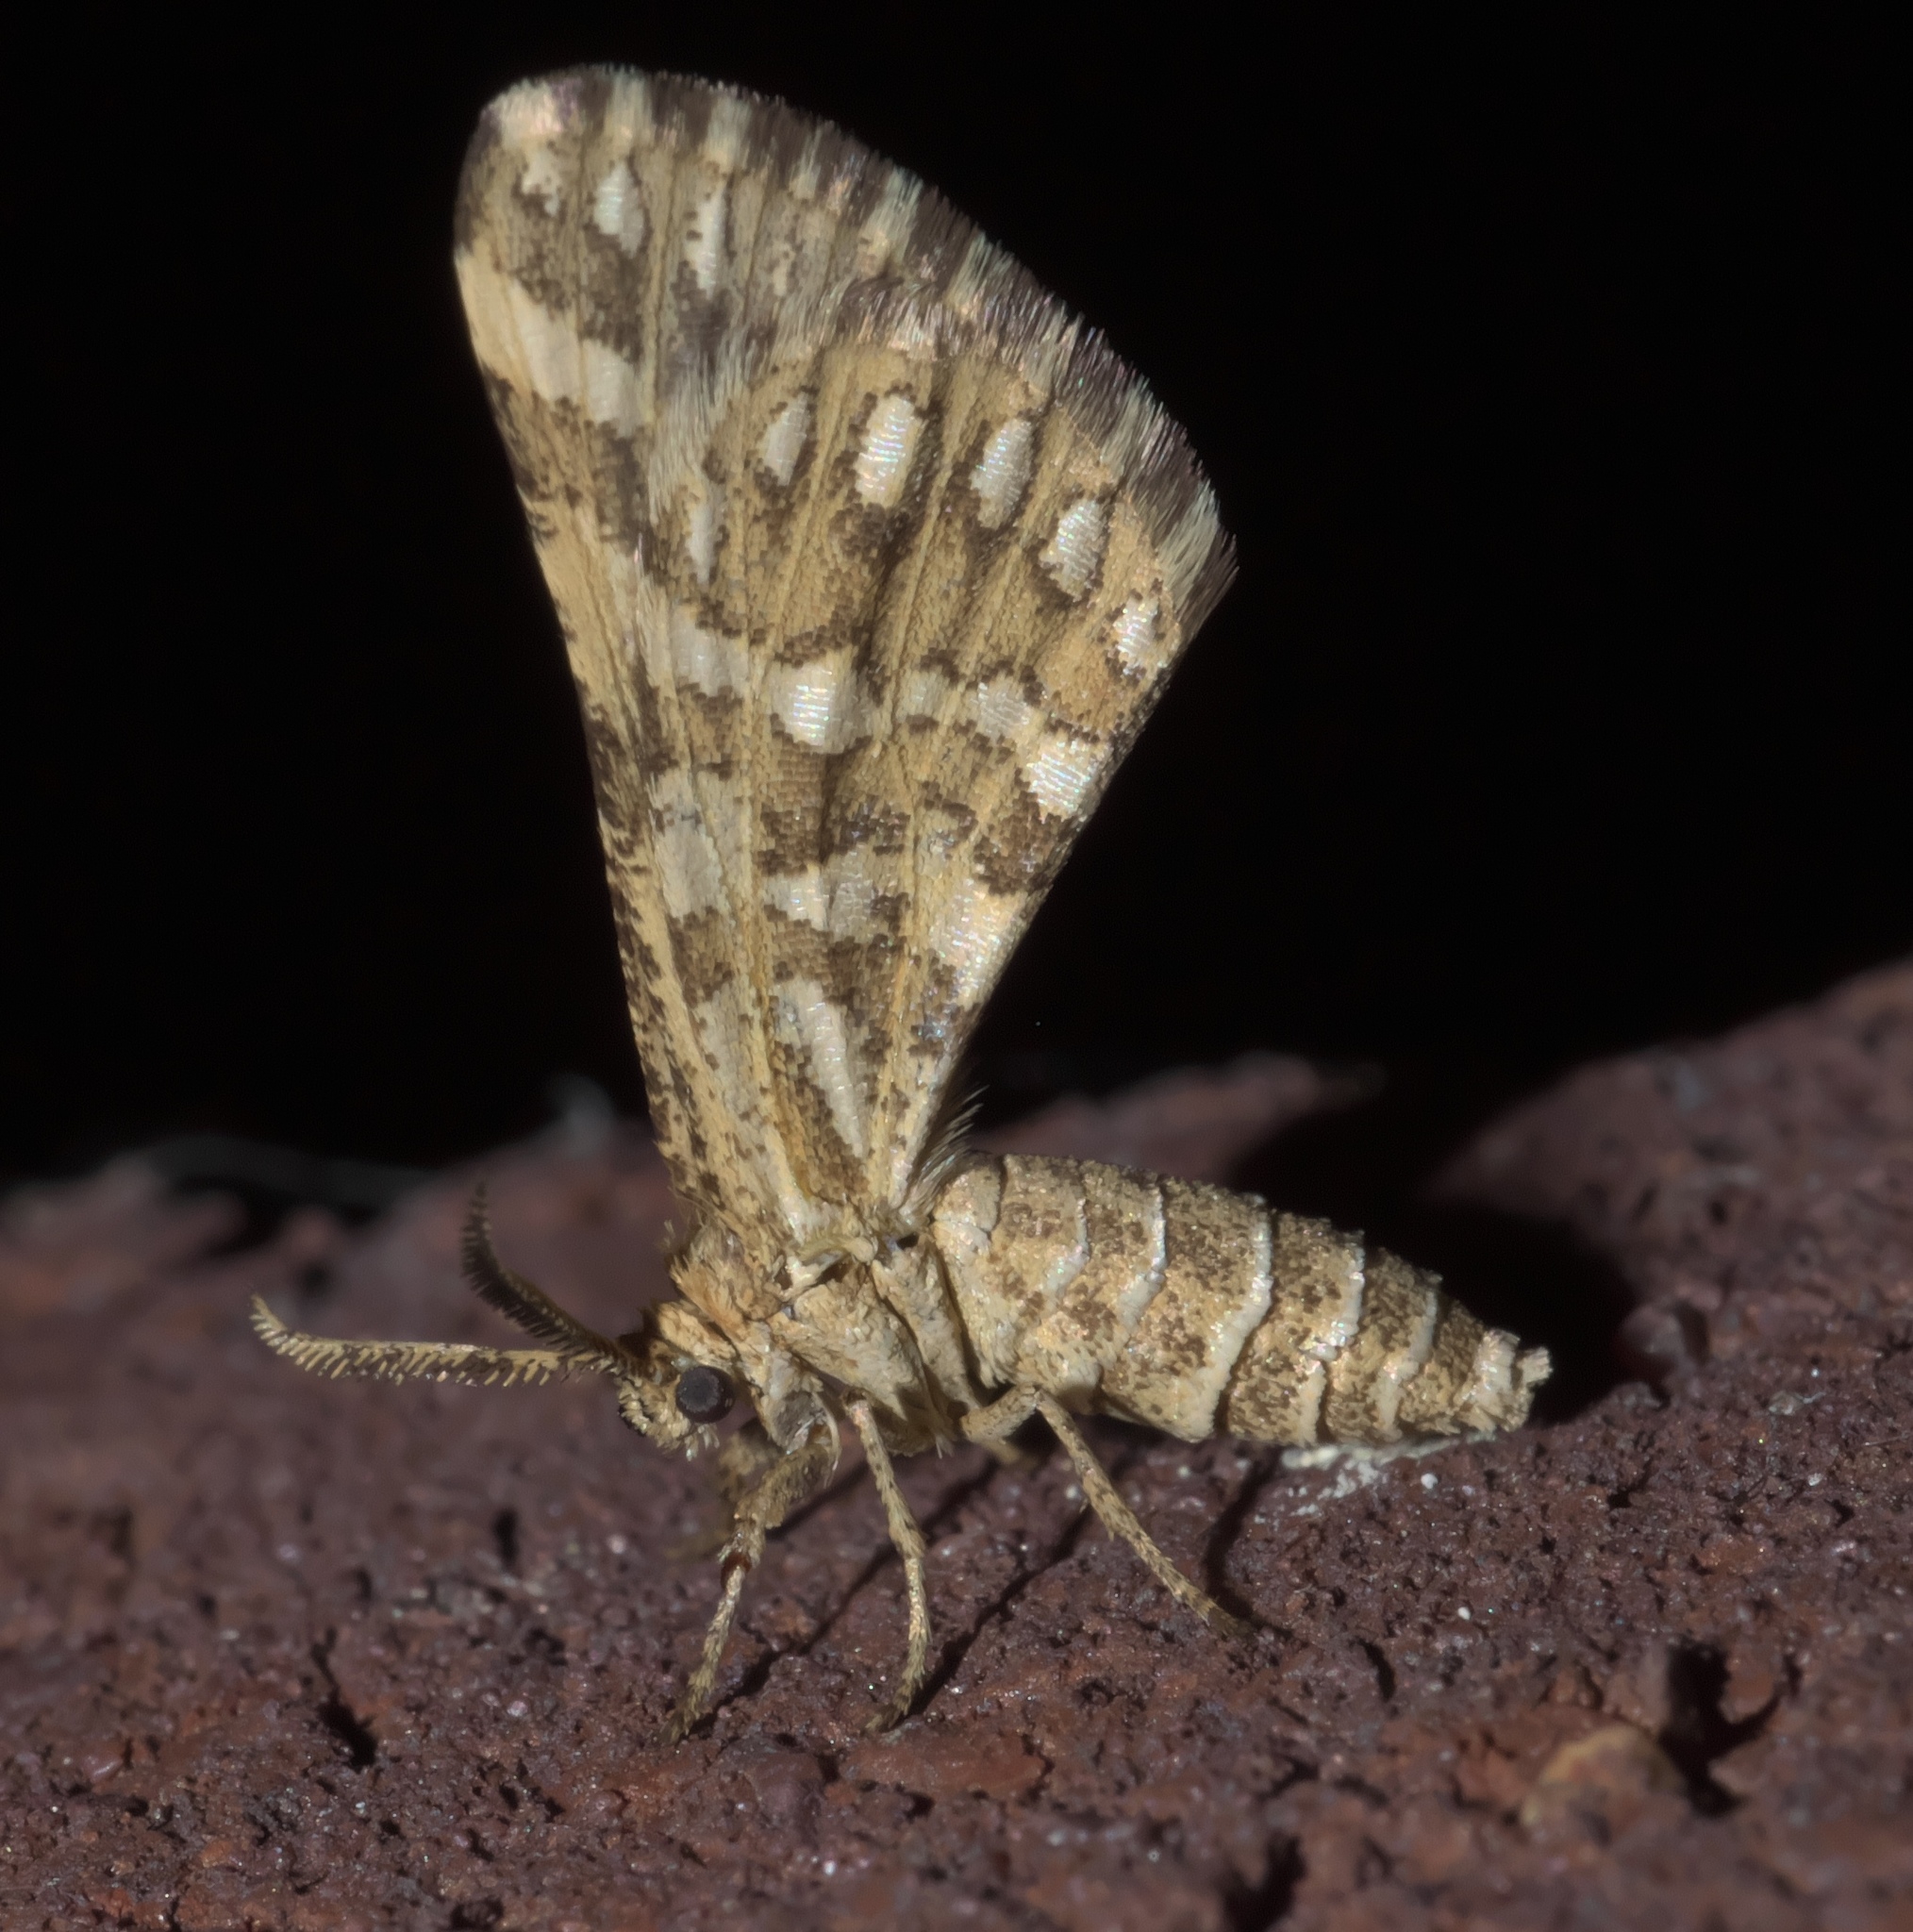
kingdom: Animalia
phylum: Arthropoda
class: Insecta
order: Lepidoptera
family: Geometridae
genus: Narraga
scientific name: Narraga fimetaria
